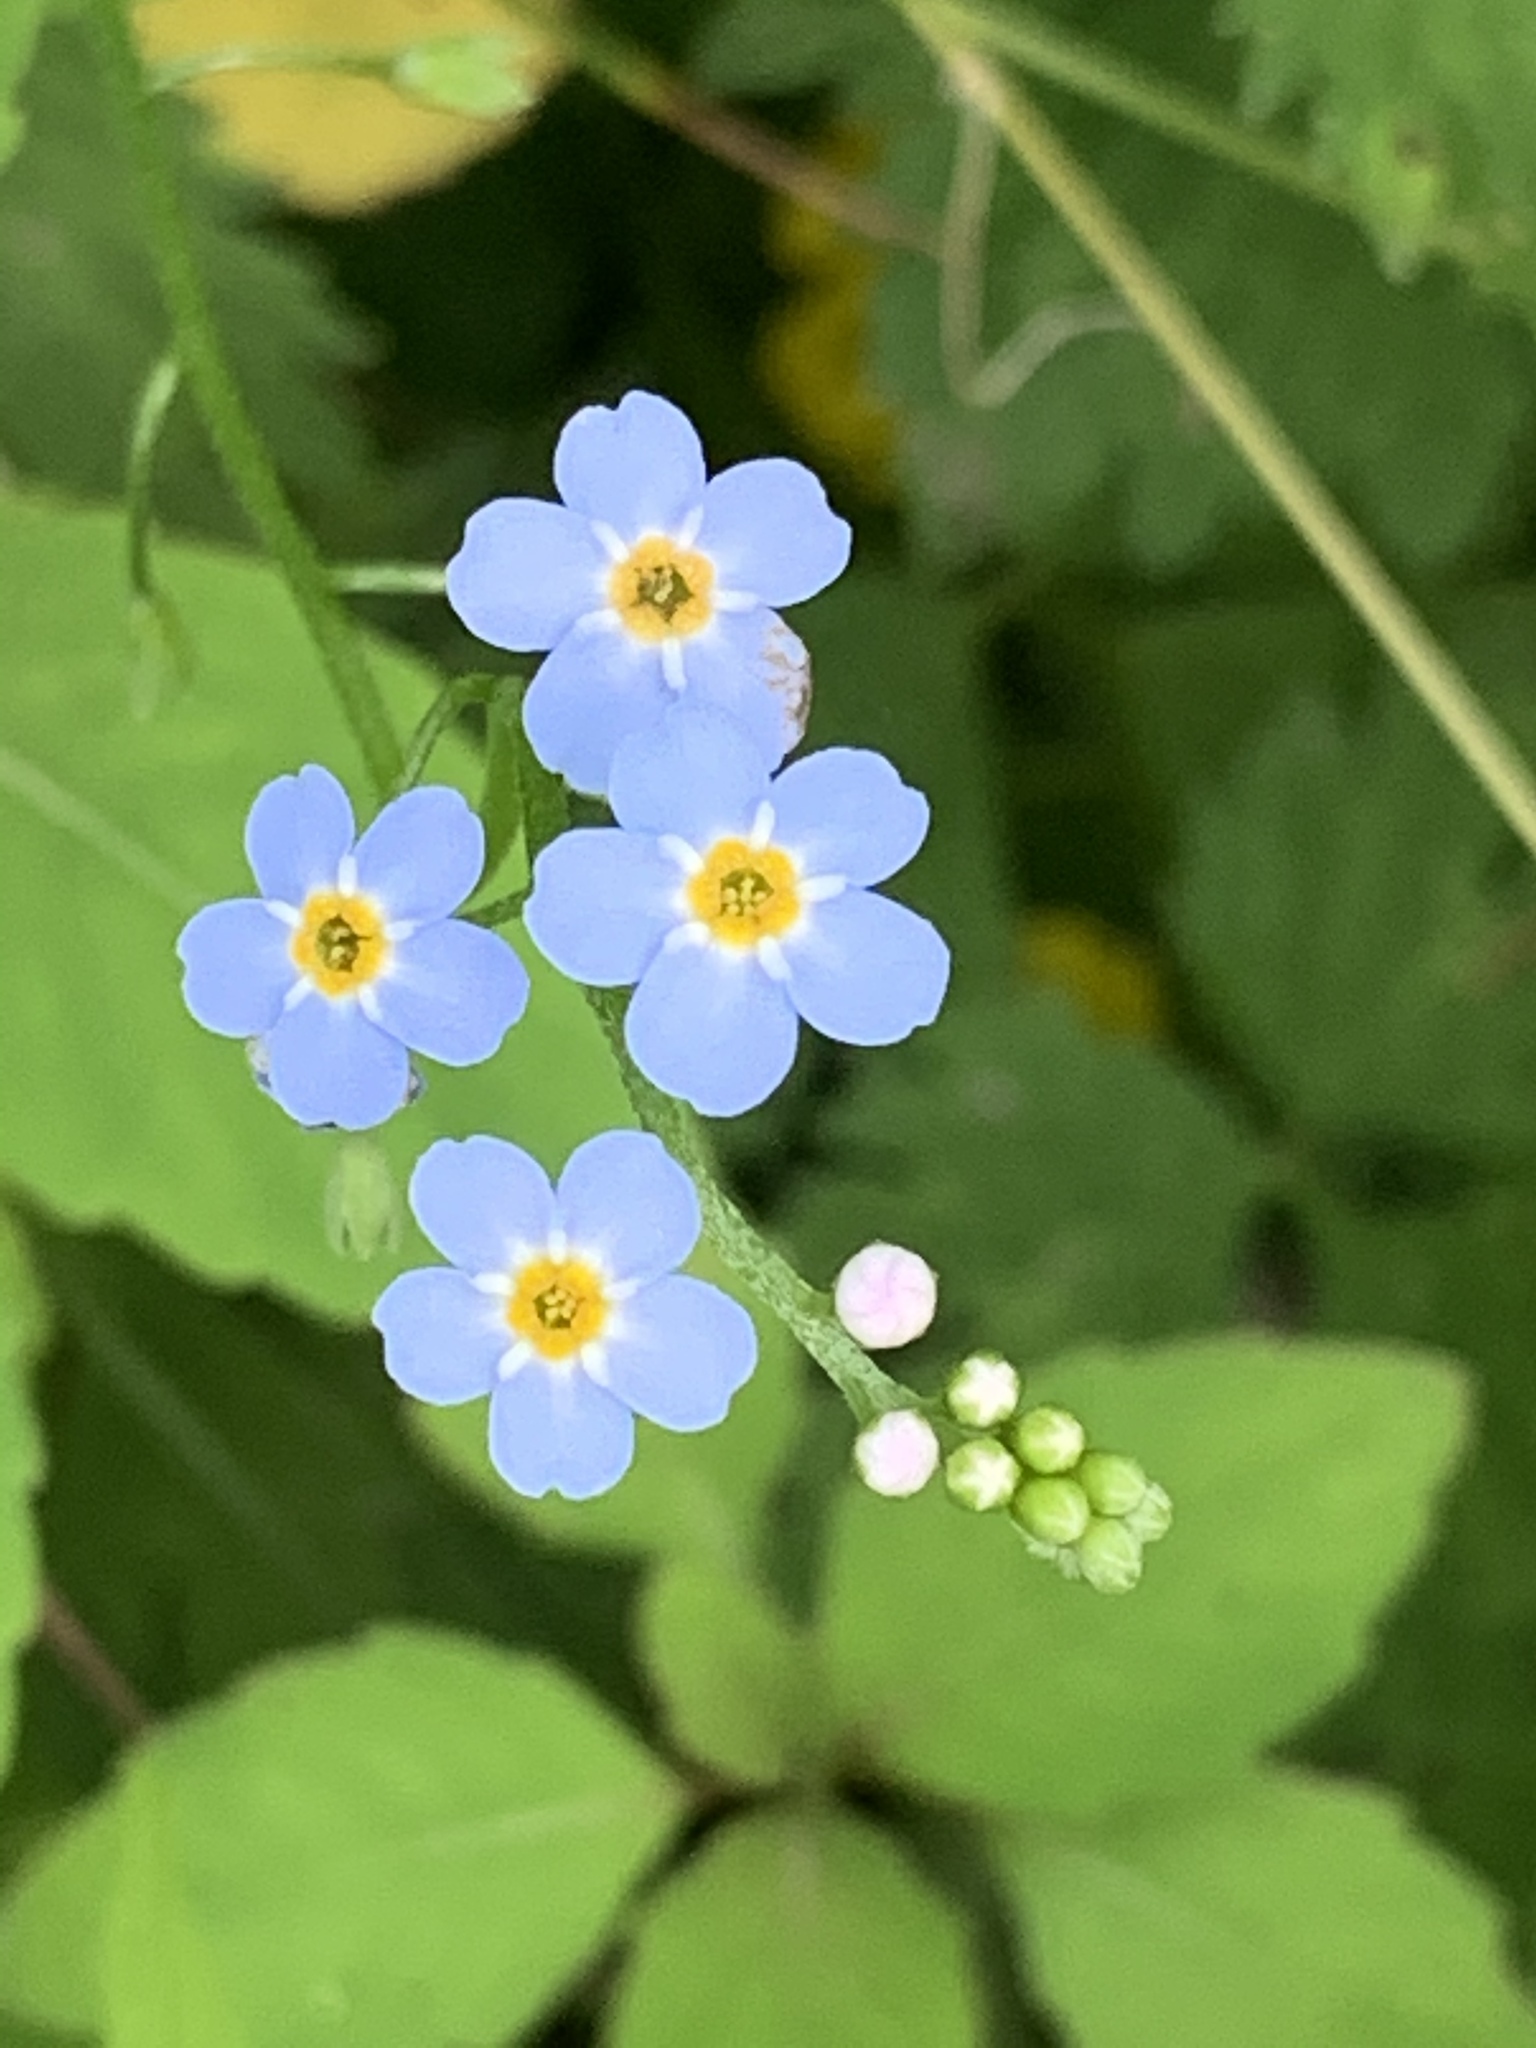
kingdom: Plantae
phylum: Tracheophyta
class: Magnoliopsida
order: Boraginales
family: Boraginaceae
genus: Myosotis
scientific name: Myosotis scorpioides
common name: Water forget-me-not
